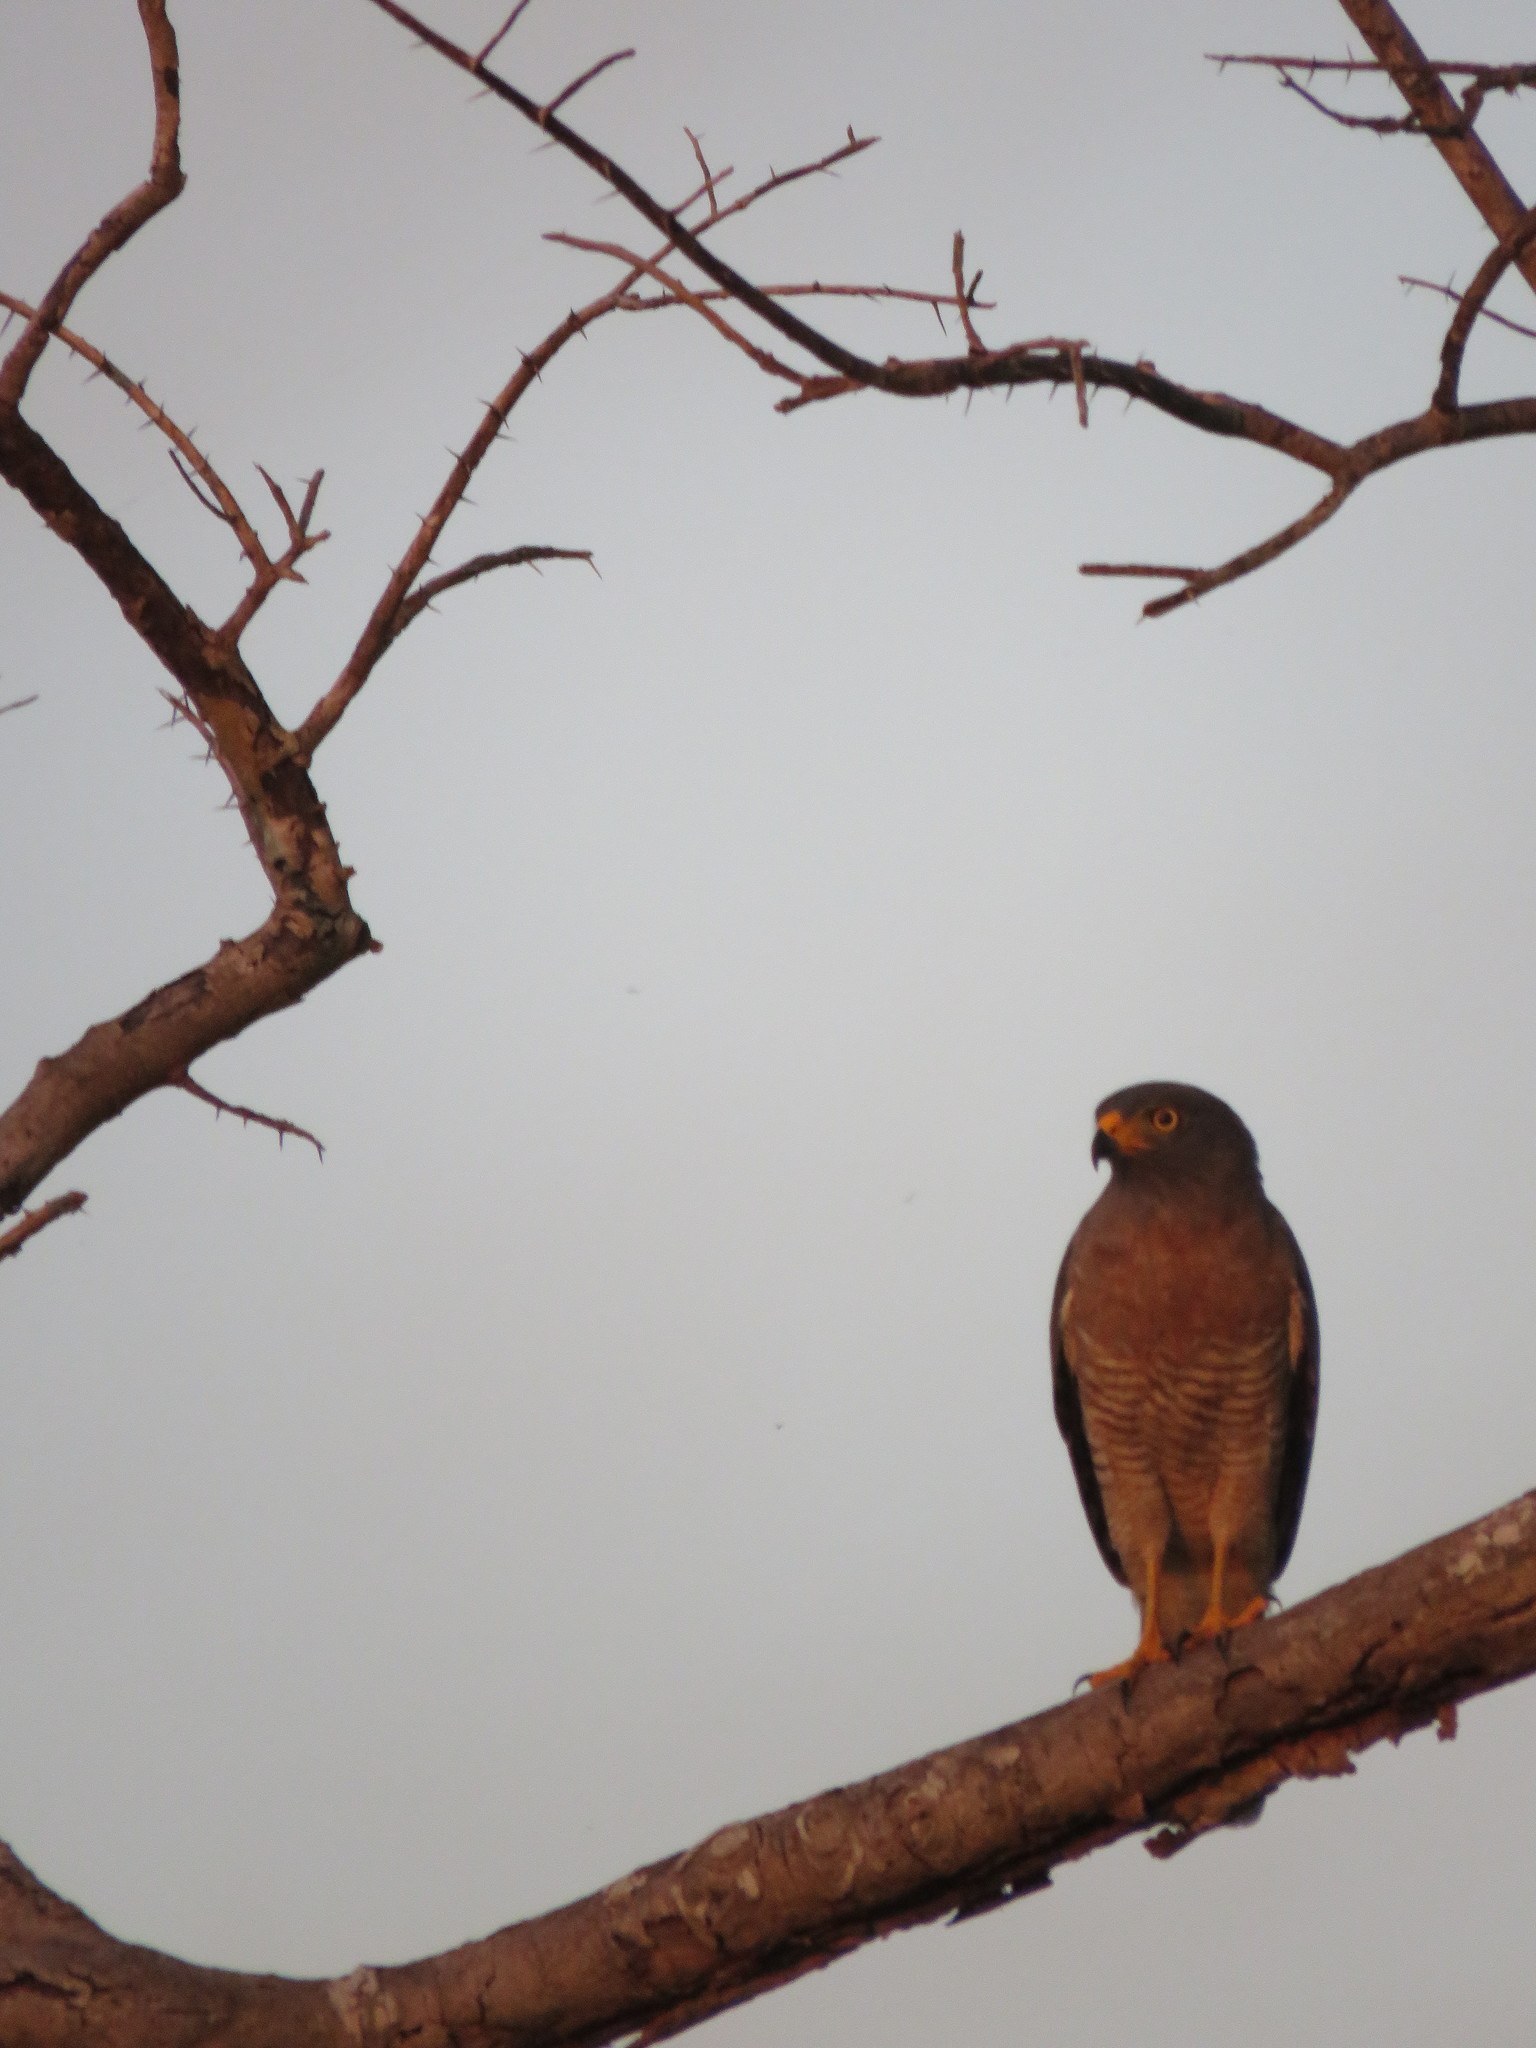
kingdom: Animalia
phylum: Chordata
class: Aves
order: Accipitriformes
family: Accipitridae
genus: Rupornis
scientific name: Rupornis magnirostris
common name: Roadside hawk
